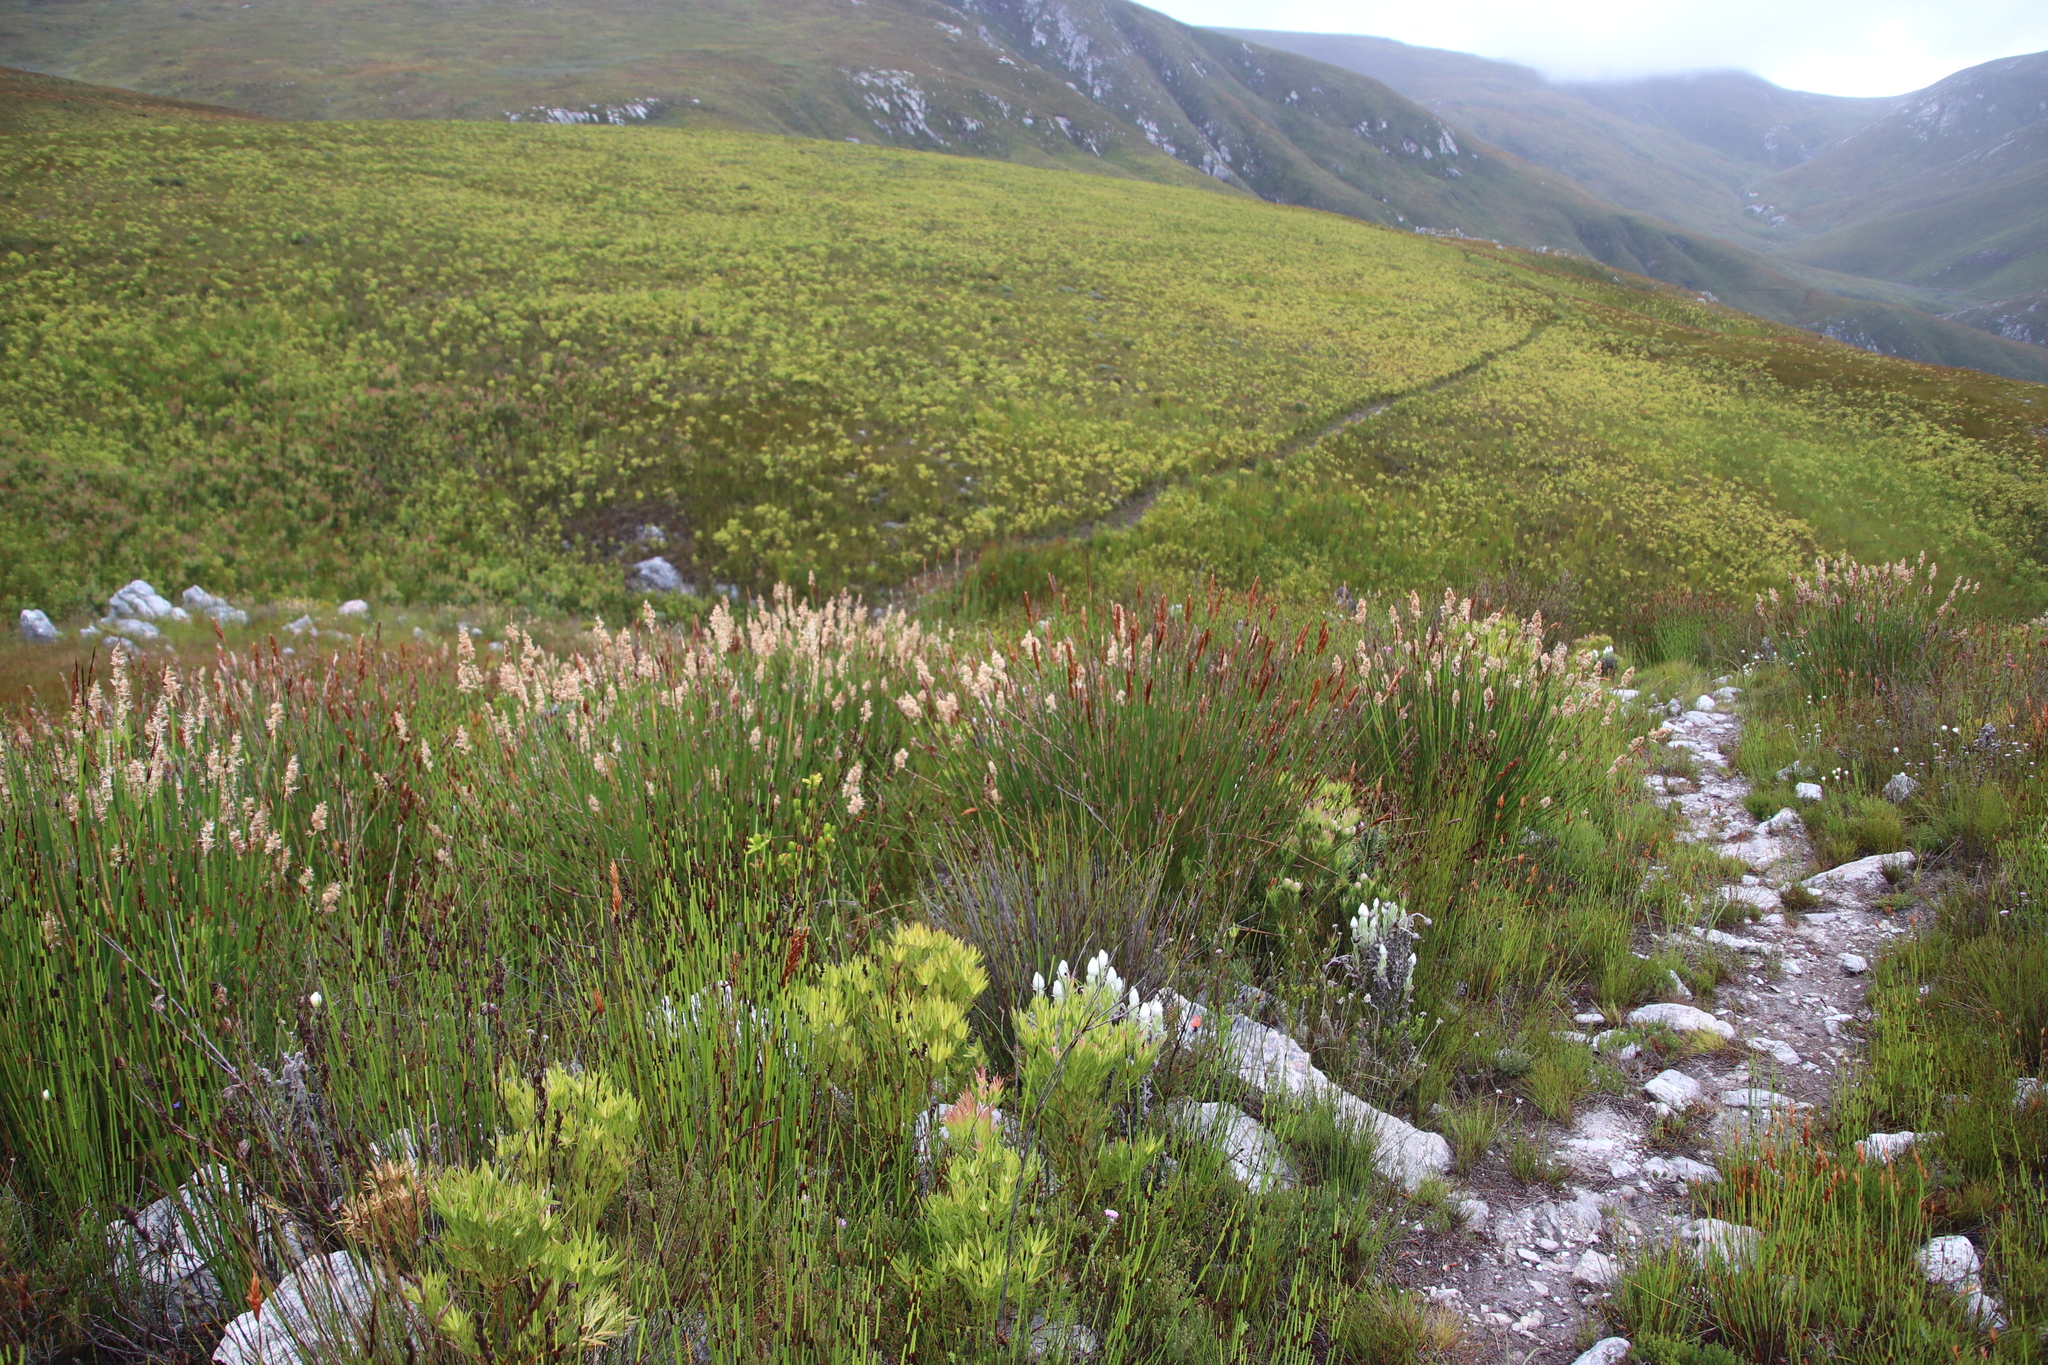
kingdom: Plantae
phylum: Tracheophyta
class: Liliopsida
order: Poales
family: Restionaceae
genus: Ceratocaryum
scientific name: Ceratocaryum caespitosum
